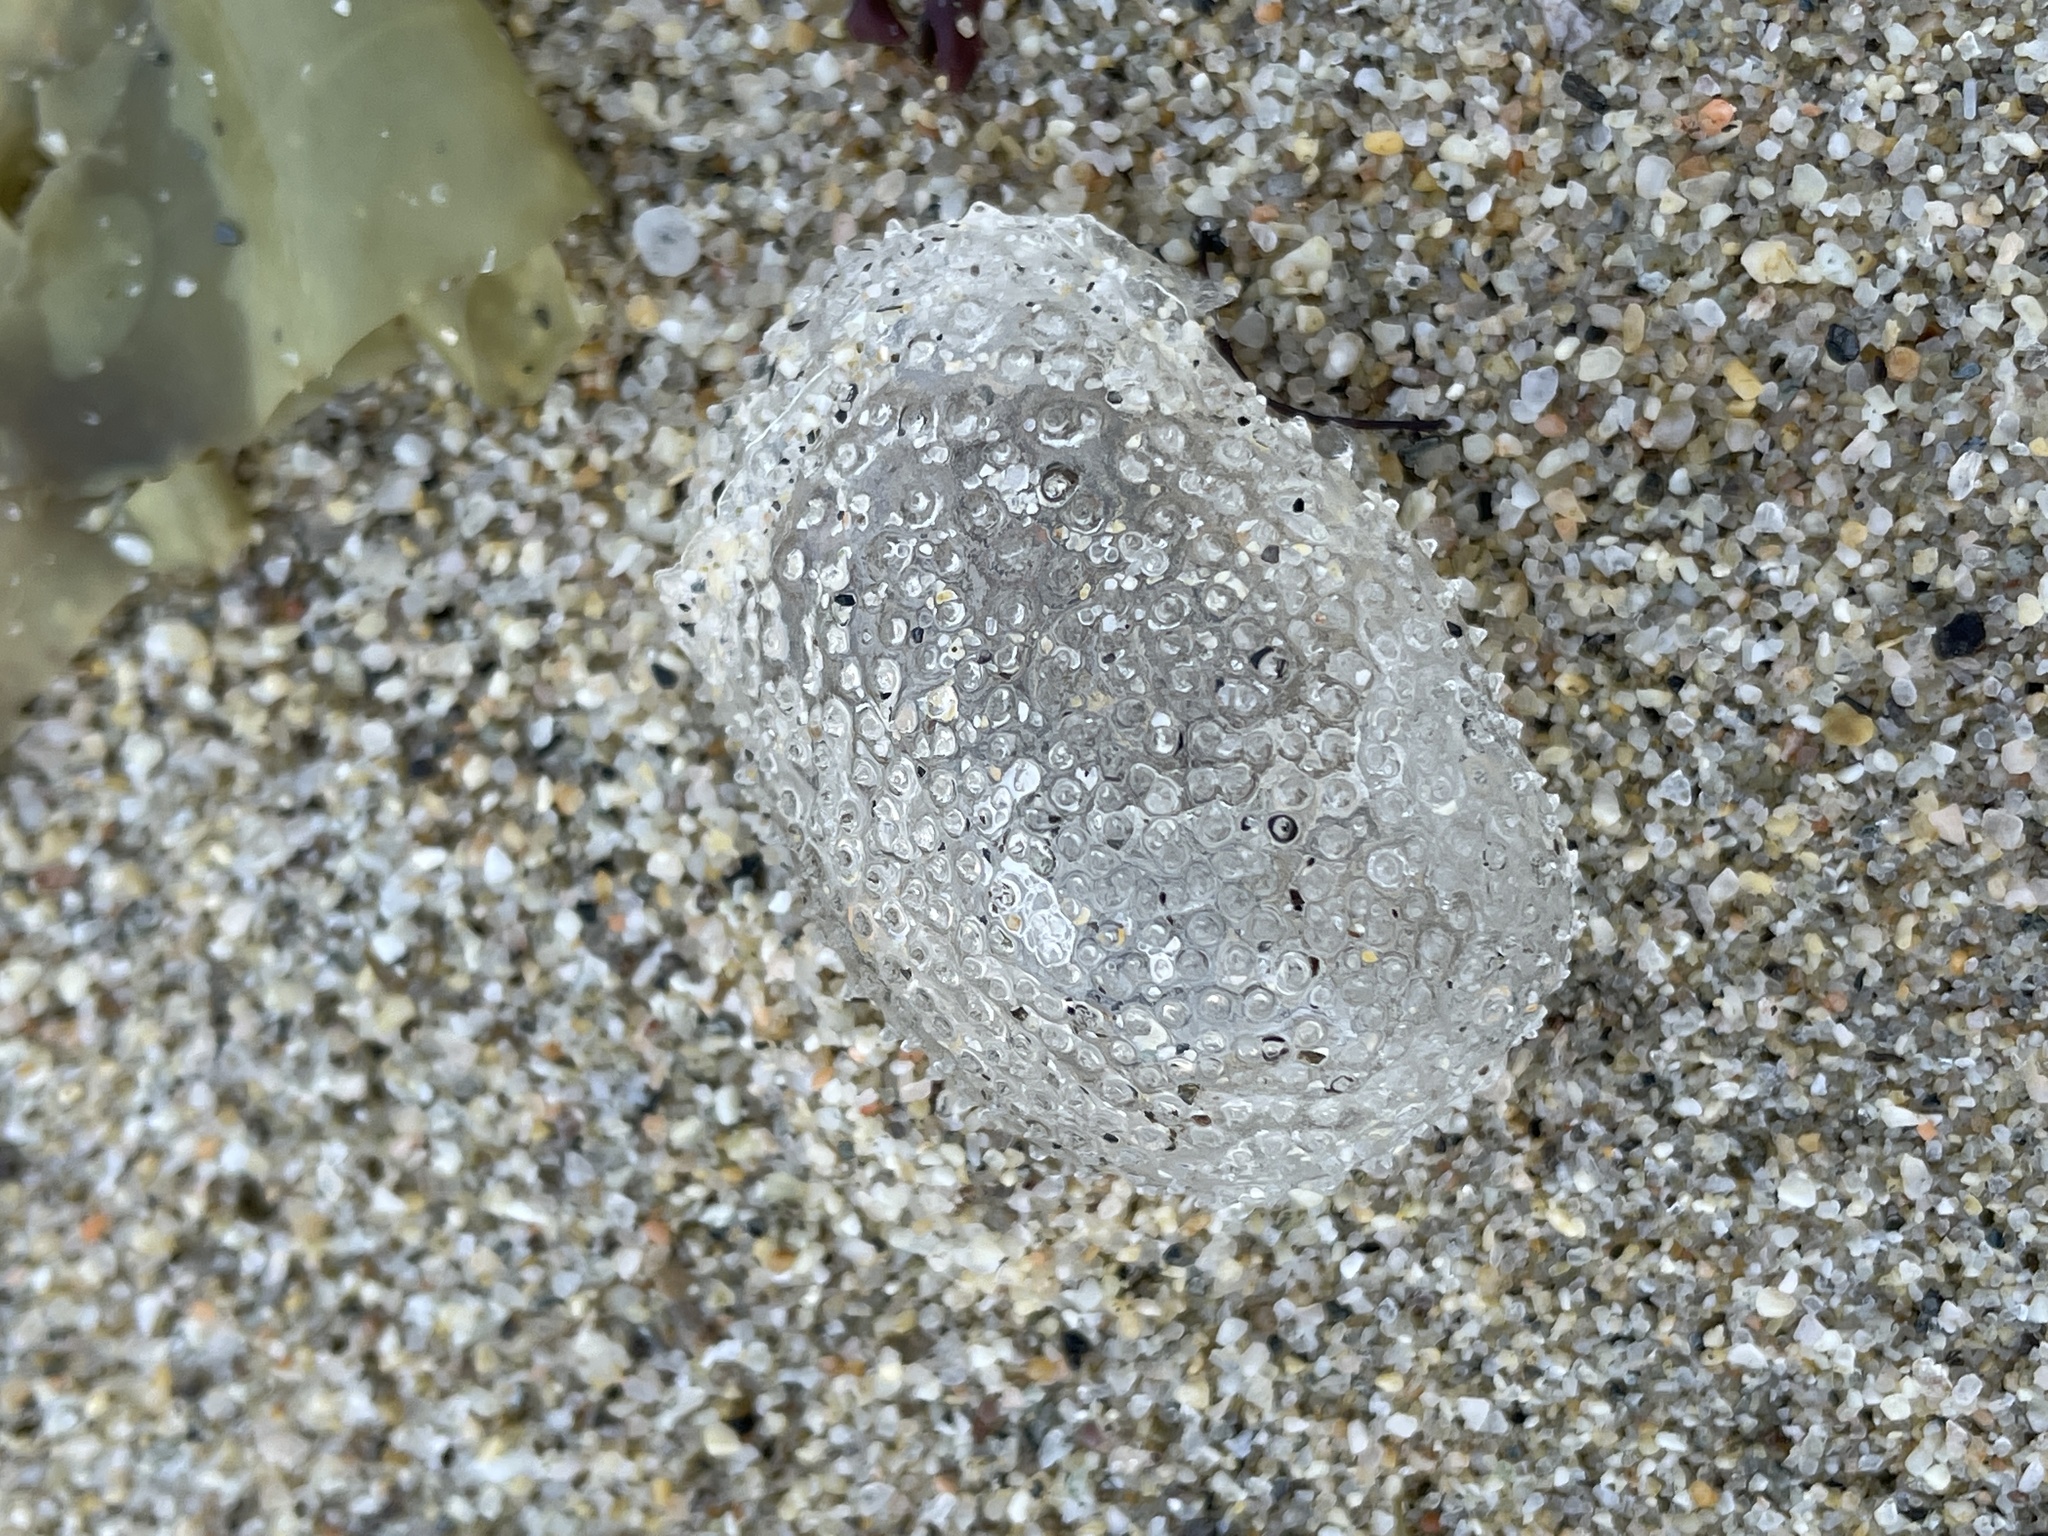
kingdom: Animalia
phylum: Mollusca
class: Gastropoda
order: Pteropoda
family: Cymbuliidae
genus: Corolla
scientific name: Corolla spectabilis
